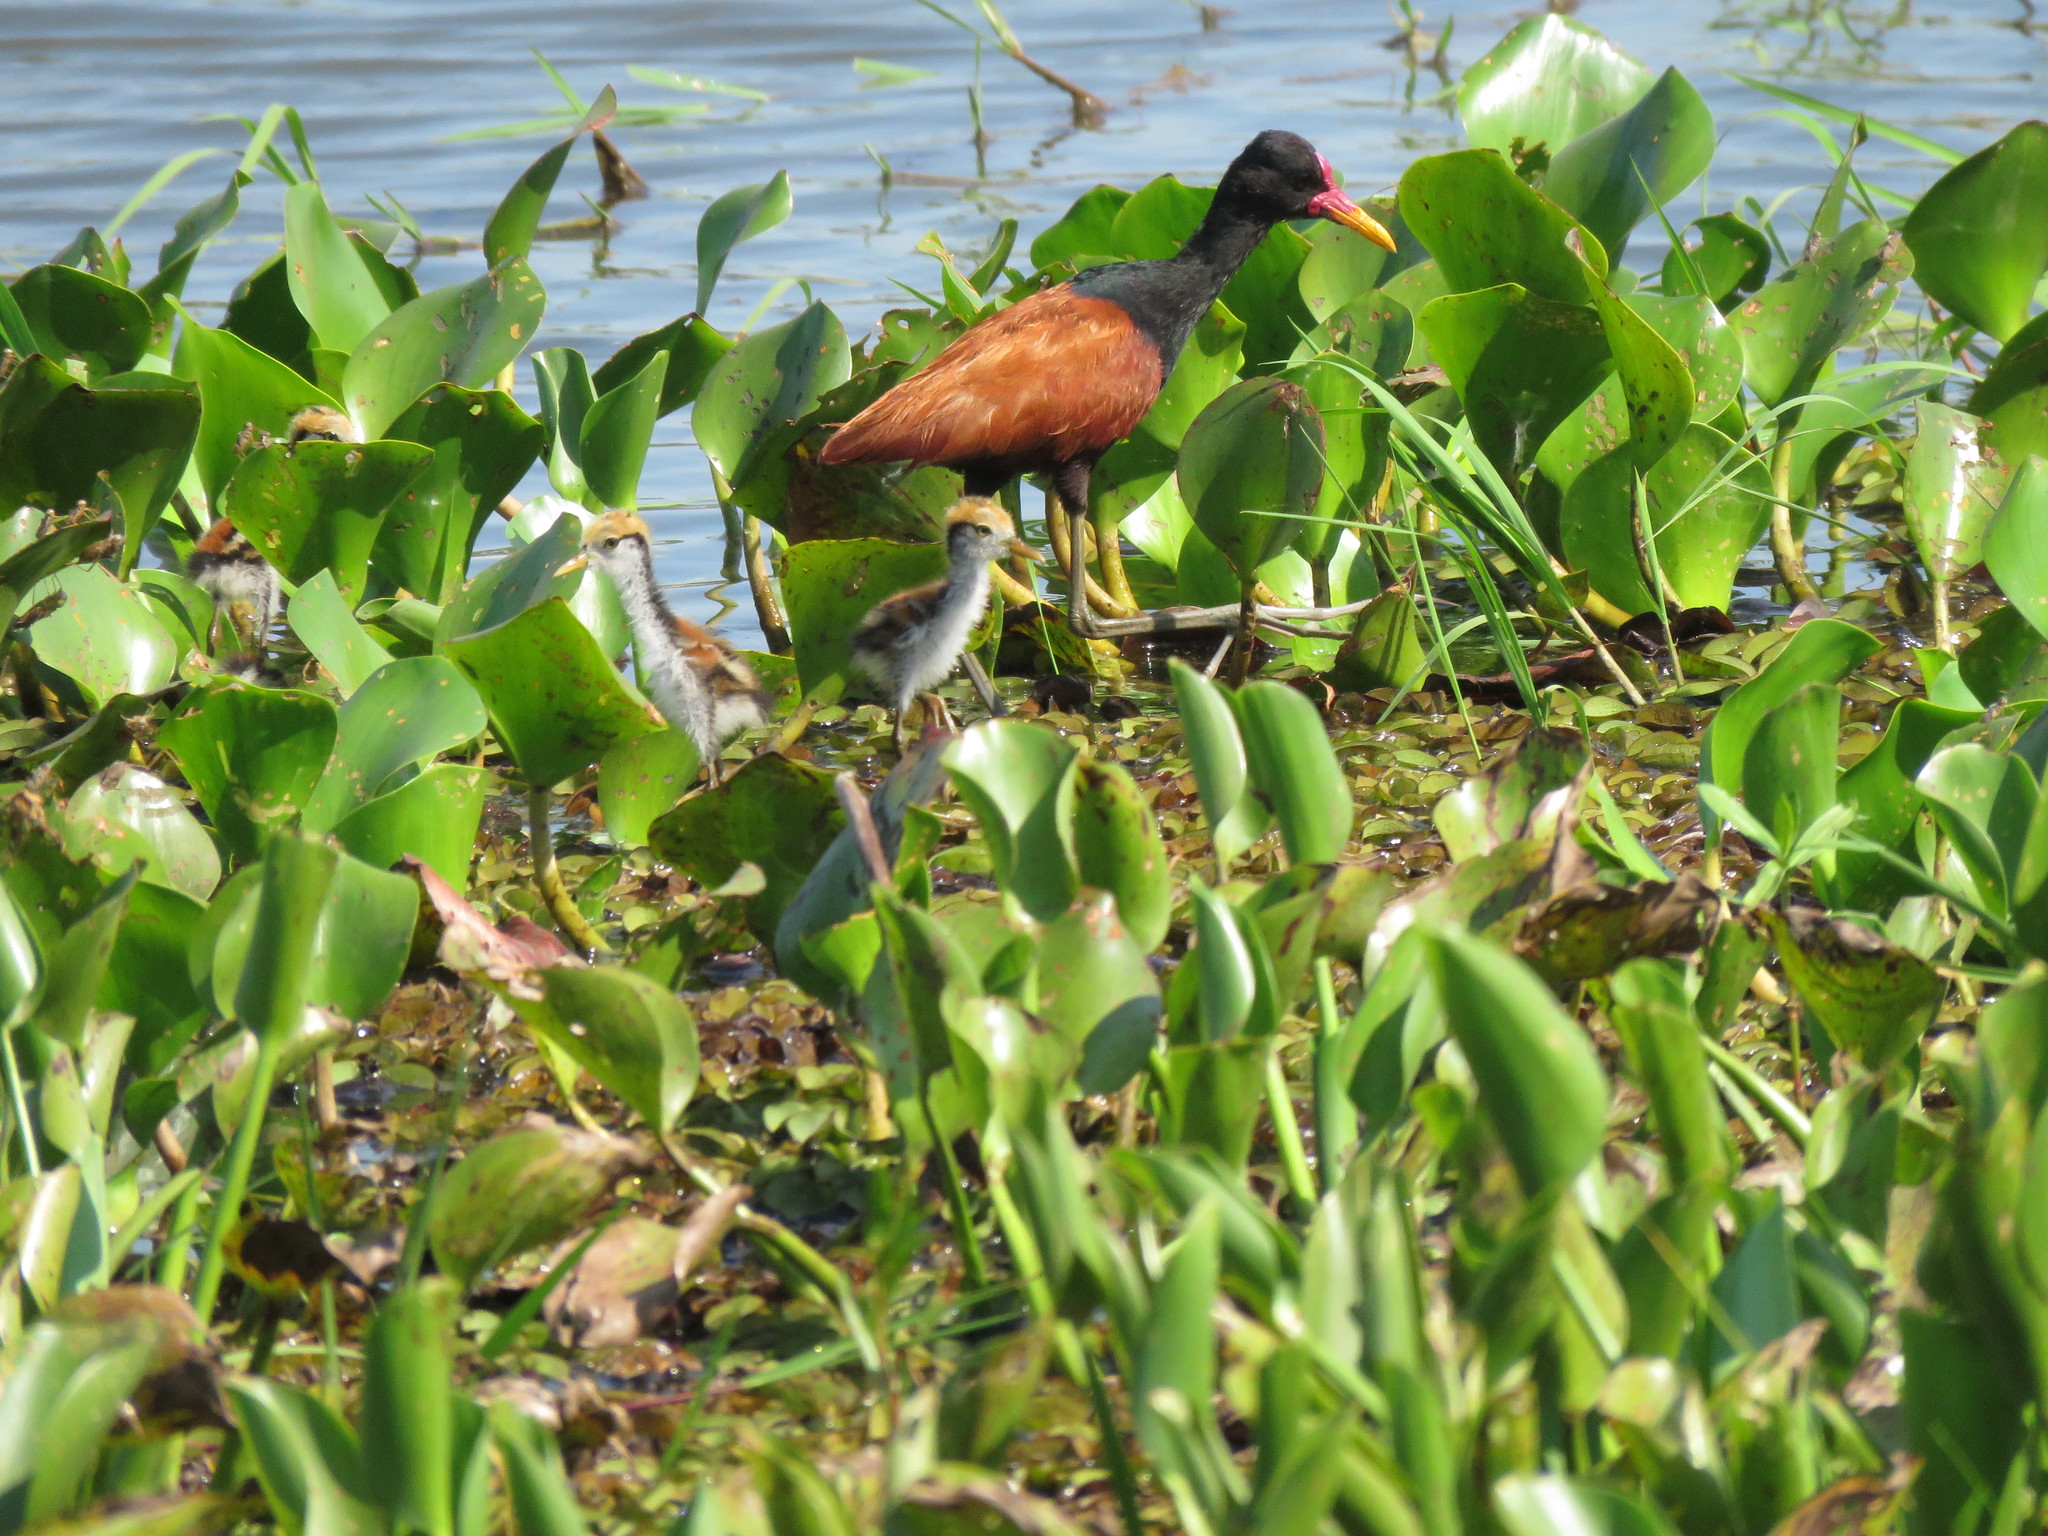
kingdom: Animalia
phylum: Chordata
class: Aves
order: Charadriiformes
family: Jacanidae
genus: Jacana
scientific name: Jacana jacana
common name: Wattled jacana
